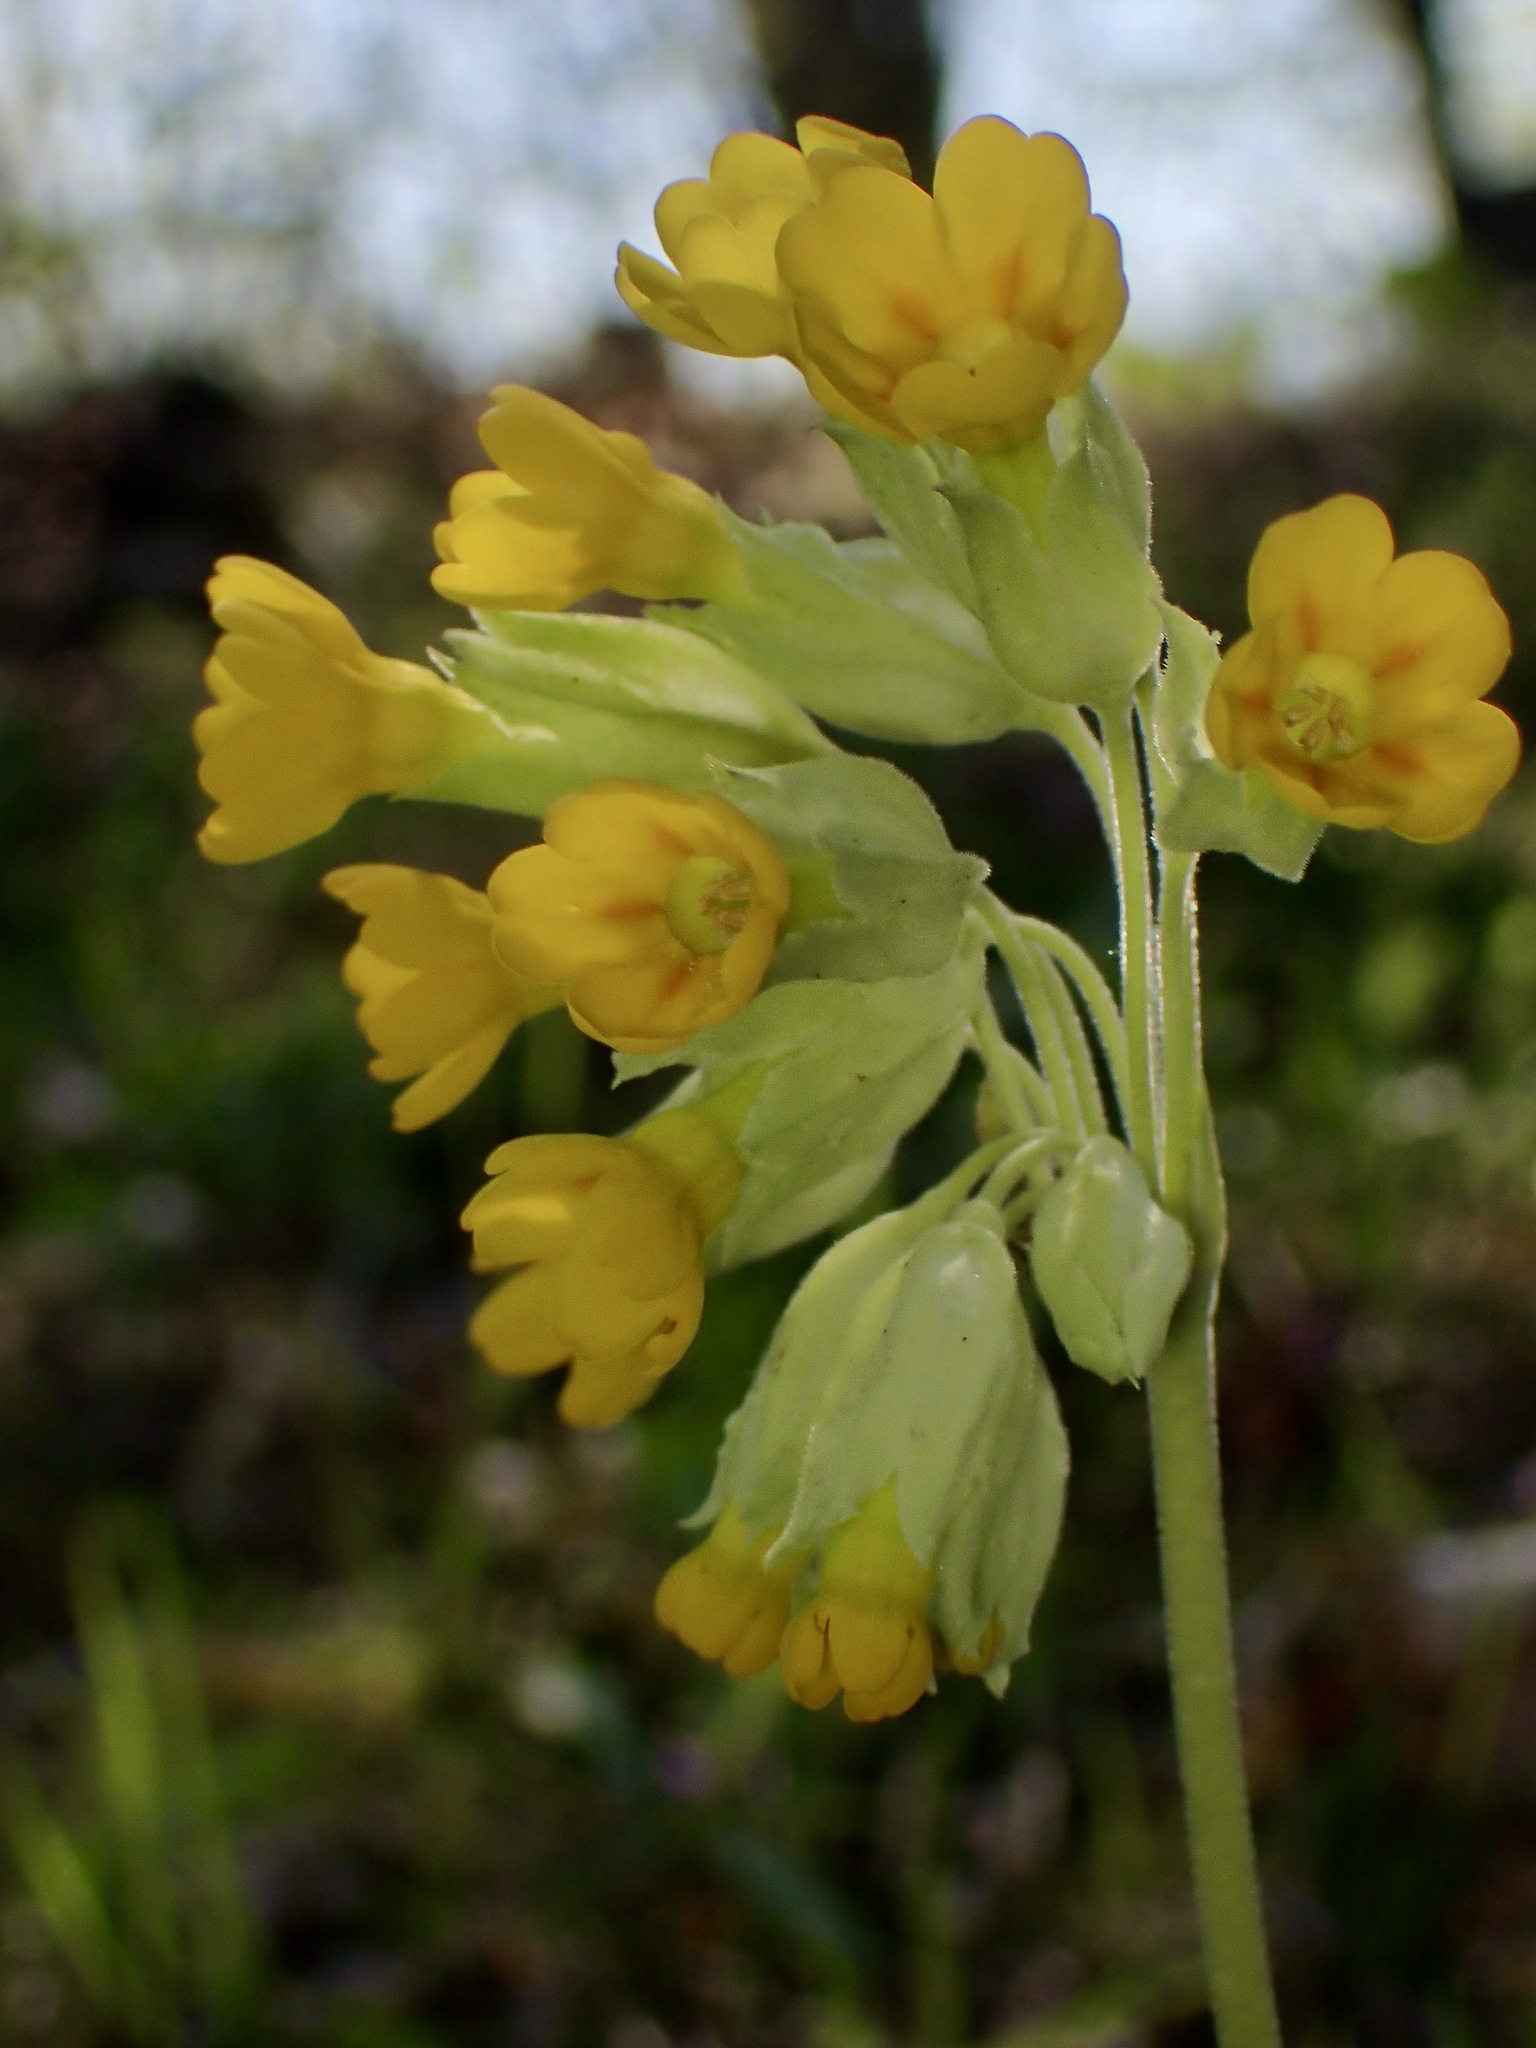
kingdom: Plantae
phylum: Tracheophyta
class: Magnoliopsida
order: Ericales
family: Primulaceae
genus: Primula
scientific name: Primula veris
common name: Cowslip
